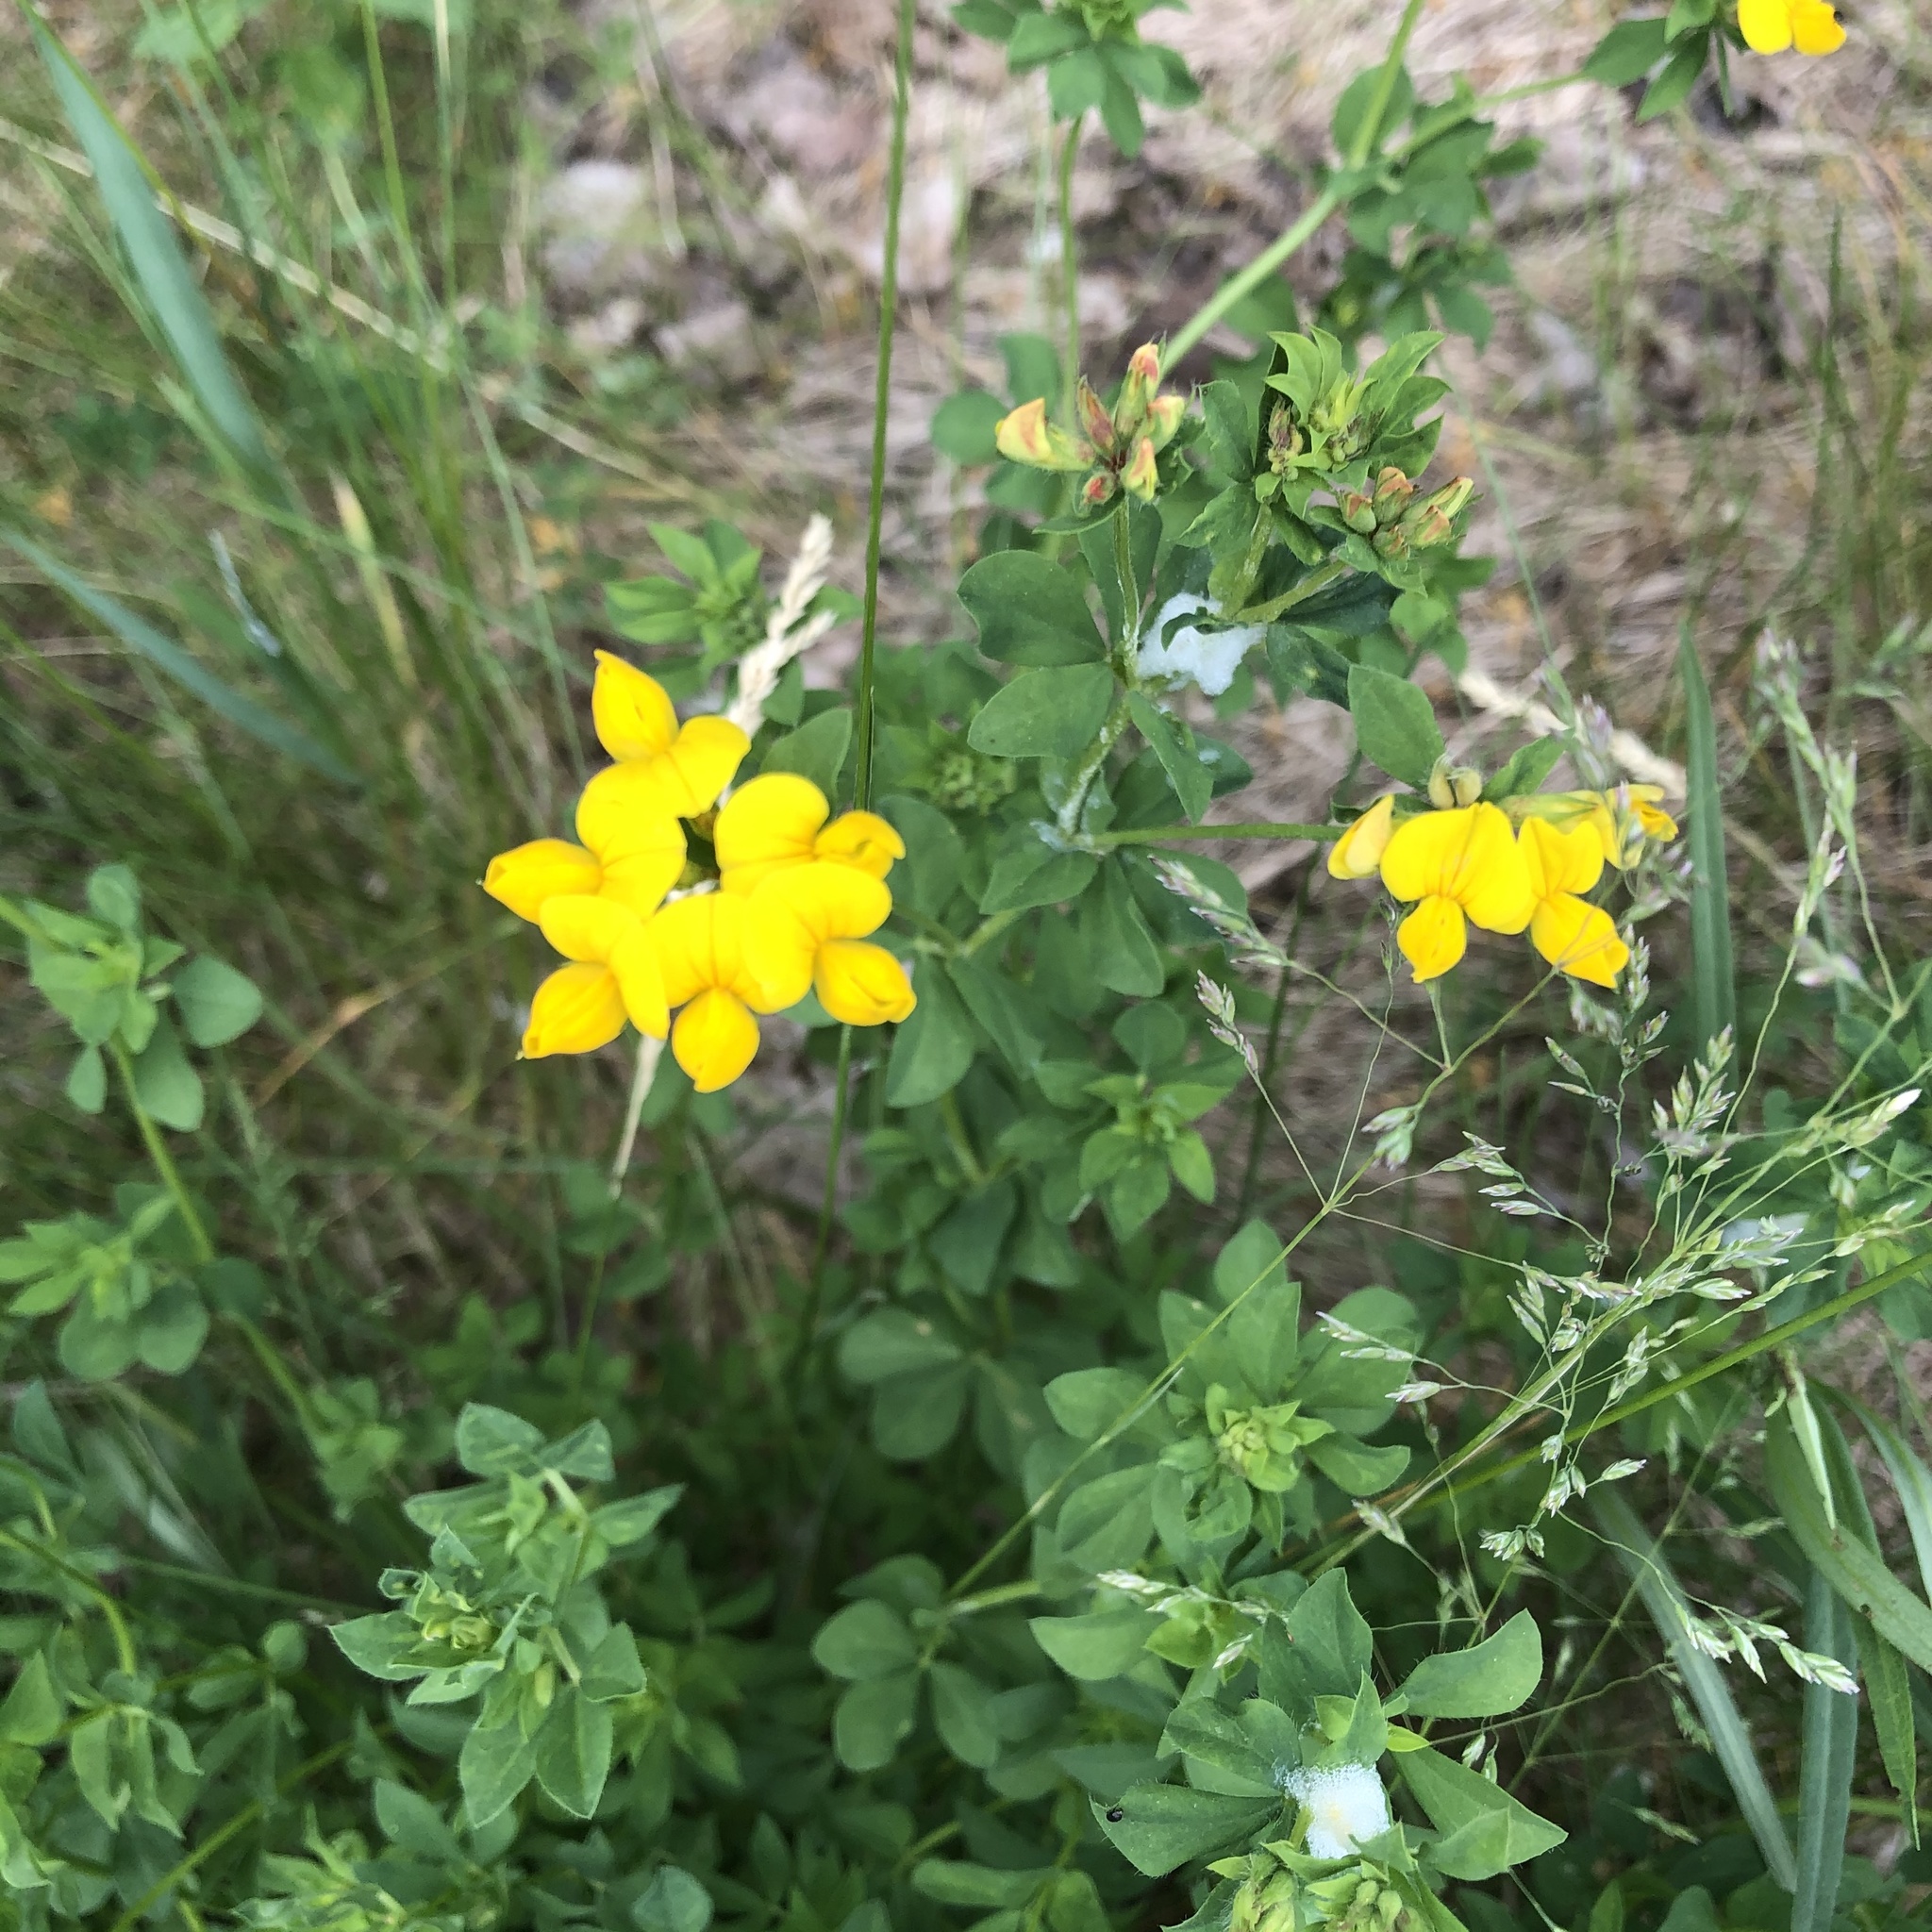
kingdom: Plantae
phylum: Tracheophyta
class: Magnoliopsida
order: Fabales
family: Fabaceae
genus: Lotus
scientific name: Lotus corniculatus
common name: Common bird's-foot-trefoil
